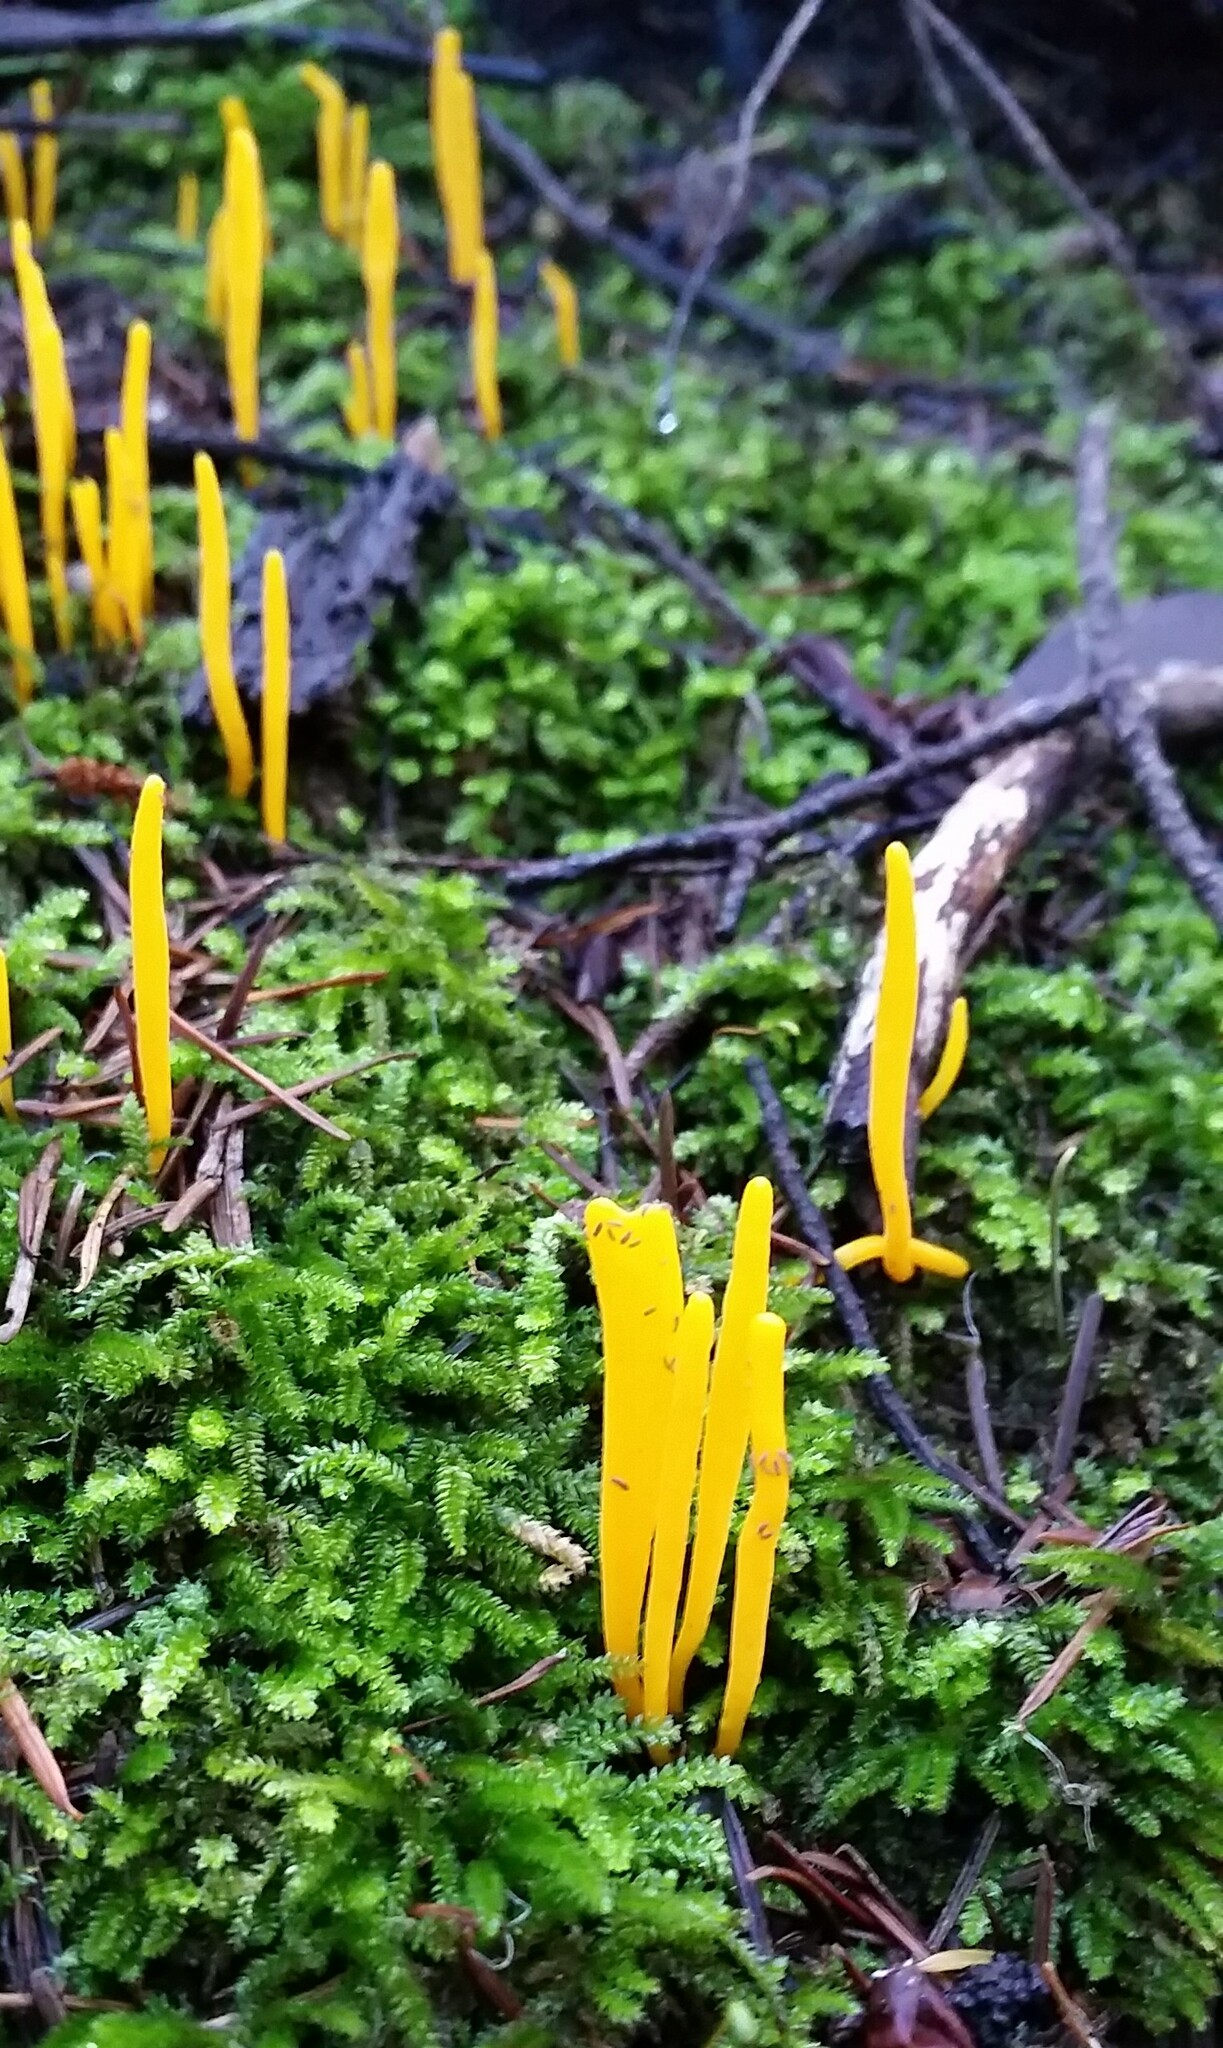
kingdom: Fungi
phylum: Basidiomycota
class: Agaricomycetes
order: Agaricales
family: Clavariaceae
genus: Clavulinopsis
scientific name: Clavulinopsis laeticolor
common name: Handsome club
